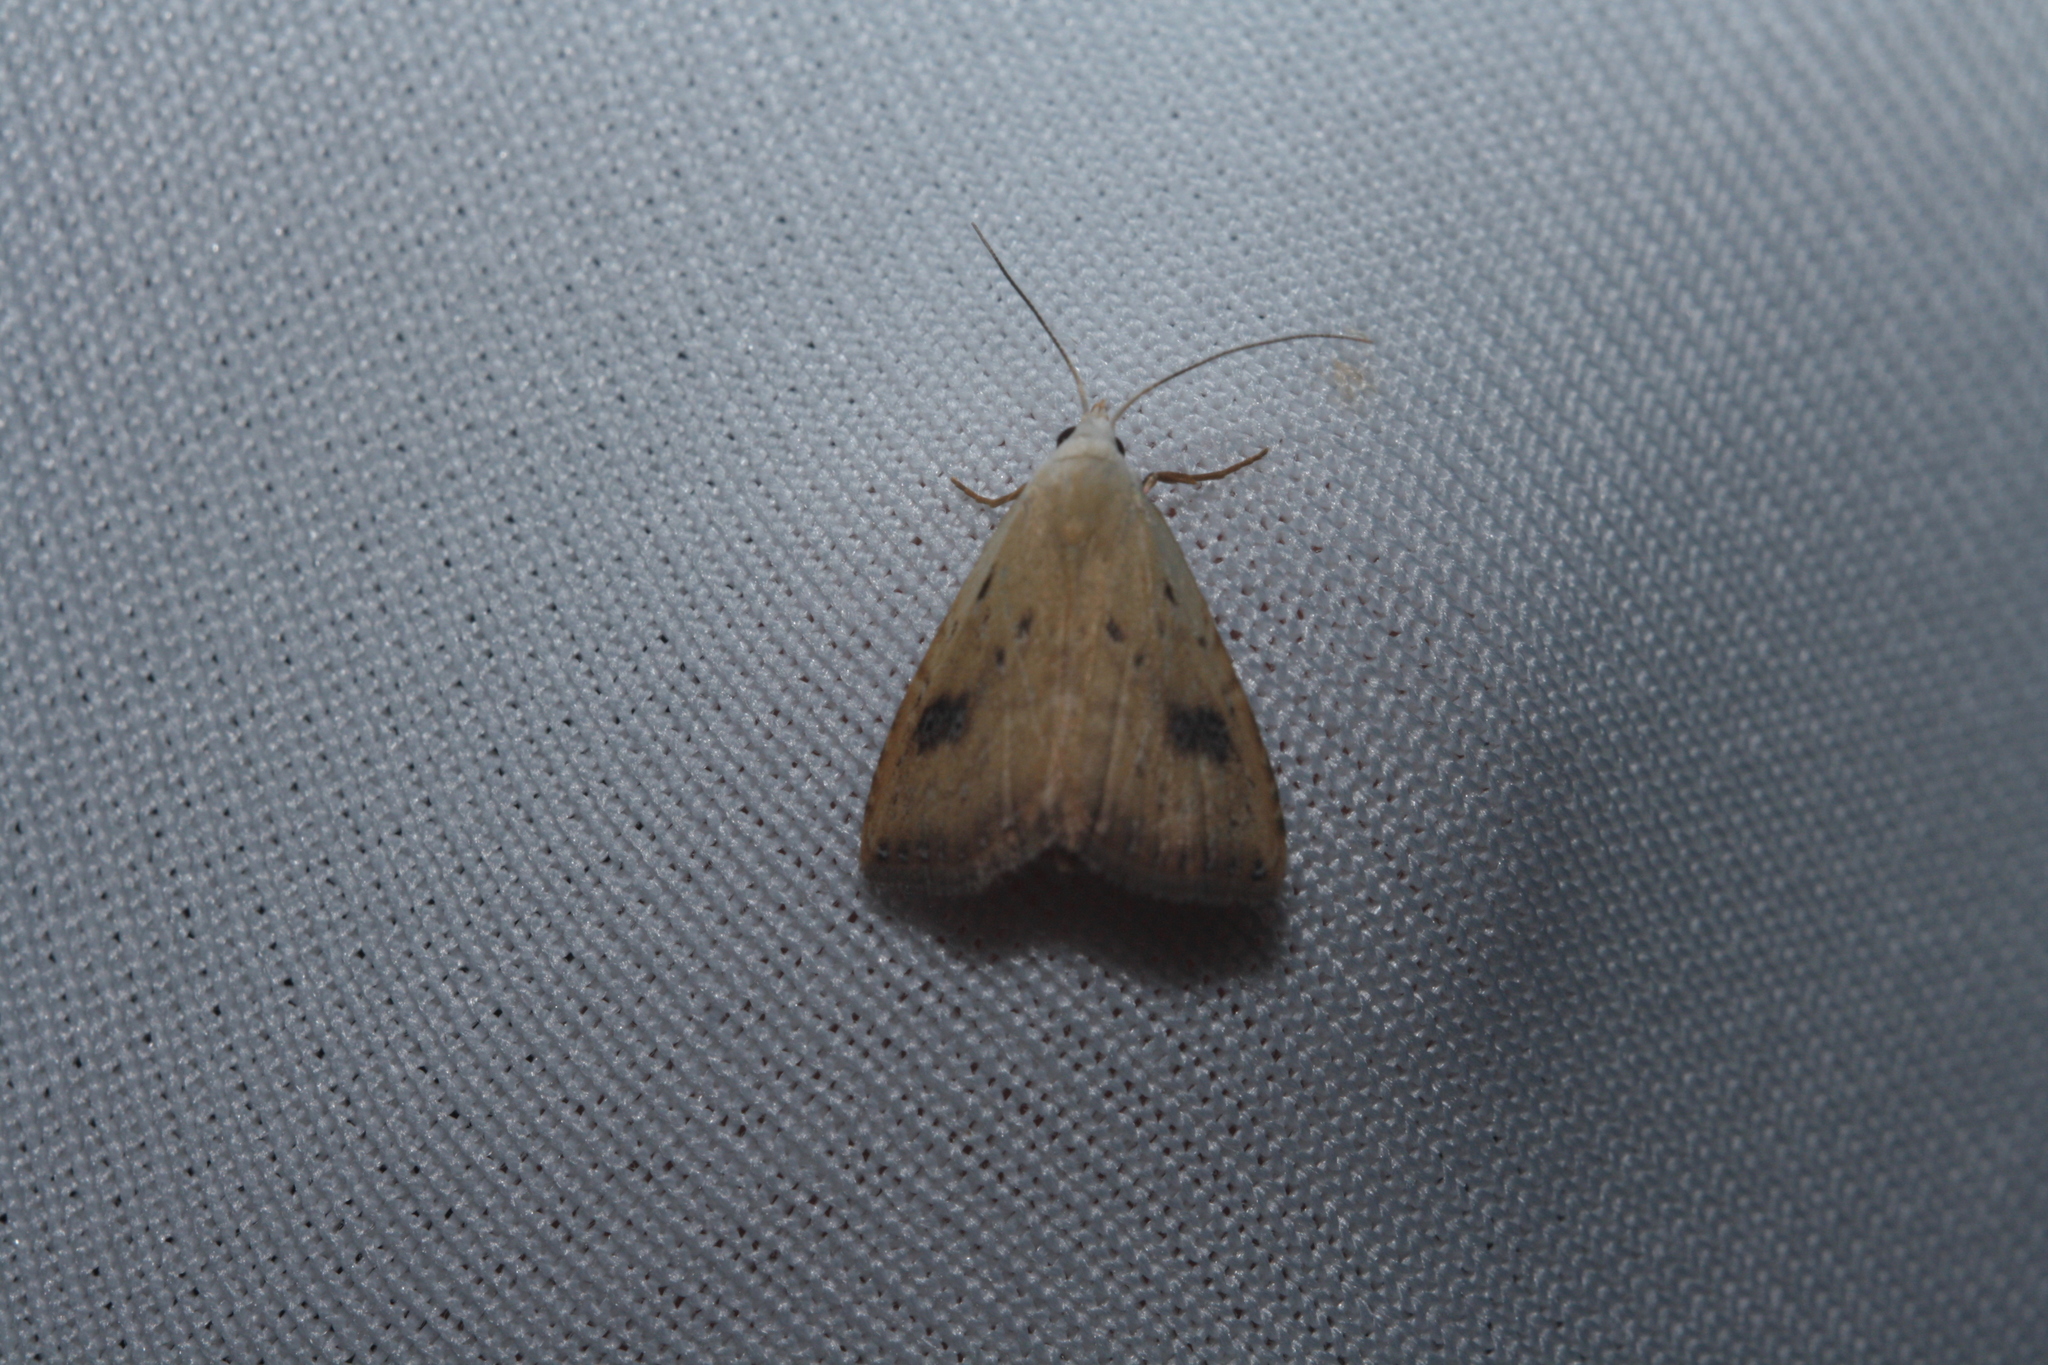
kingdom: Animalia
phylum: Arthropoda
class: Insecta
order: Lepidoptera
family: Erebidae
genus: Rivula
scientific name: Rivula sericealis
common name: Straw dot
